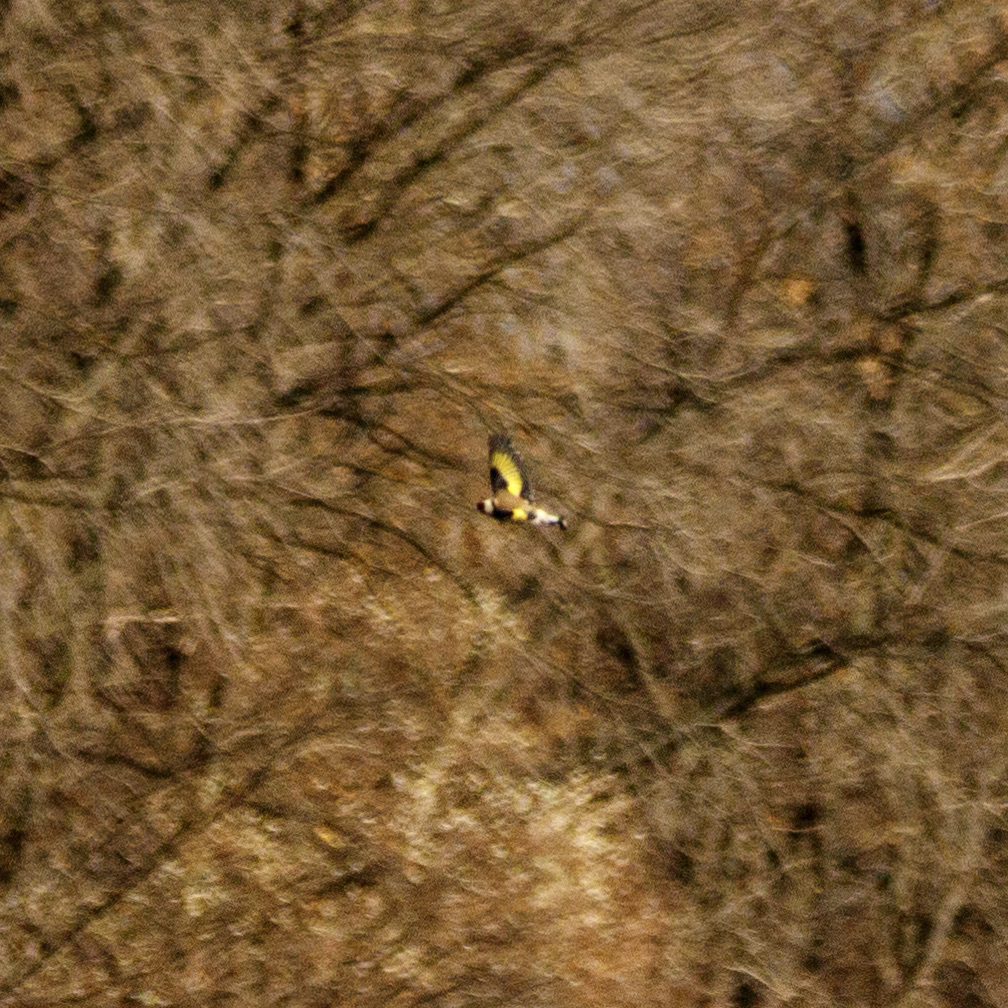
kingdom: Animalia
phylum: Chordata
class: Aves
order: Passeriformes
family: Fringillidae
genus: Carduelis
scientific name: Carduelis carduelis
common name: European goldfinch
